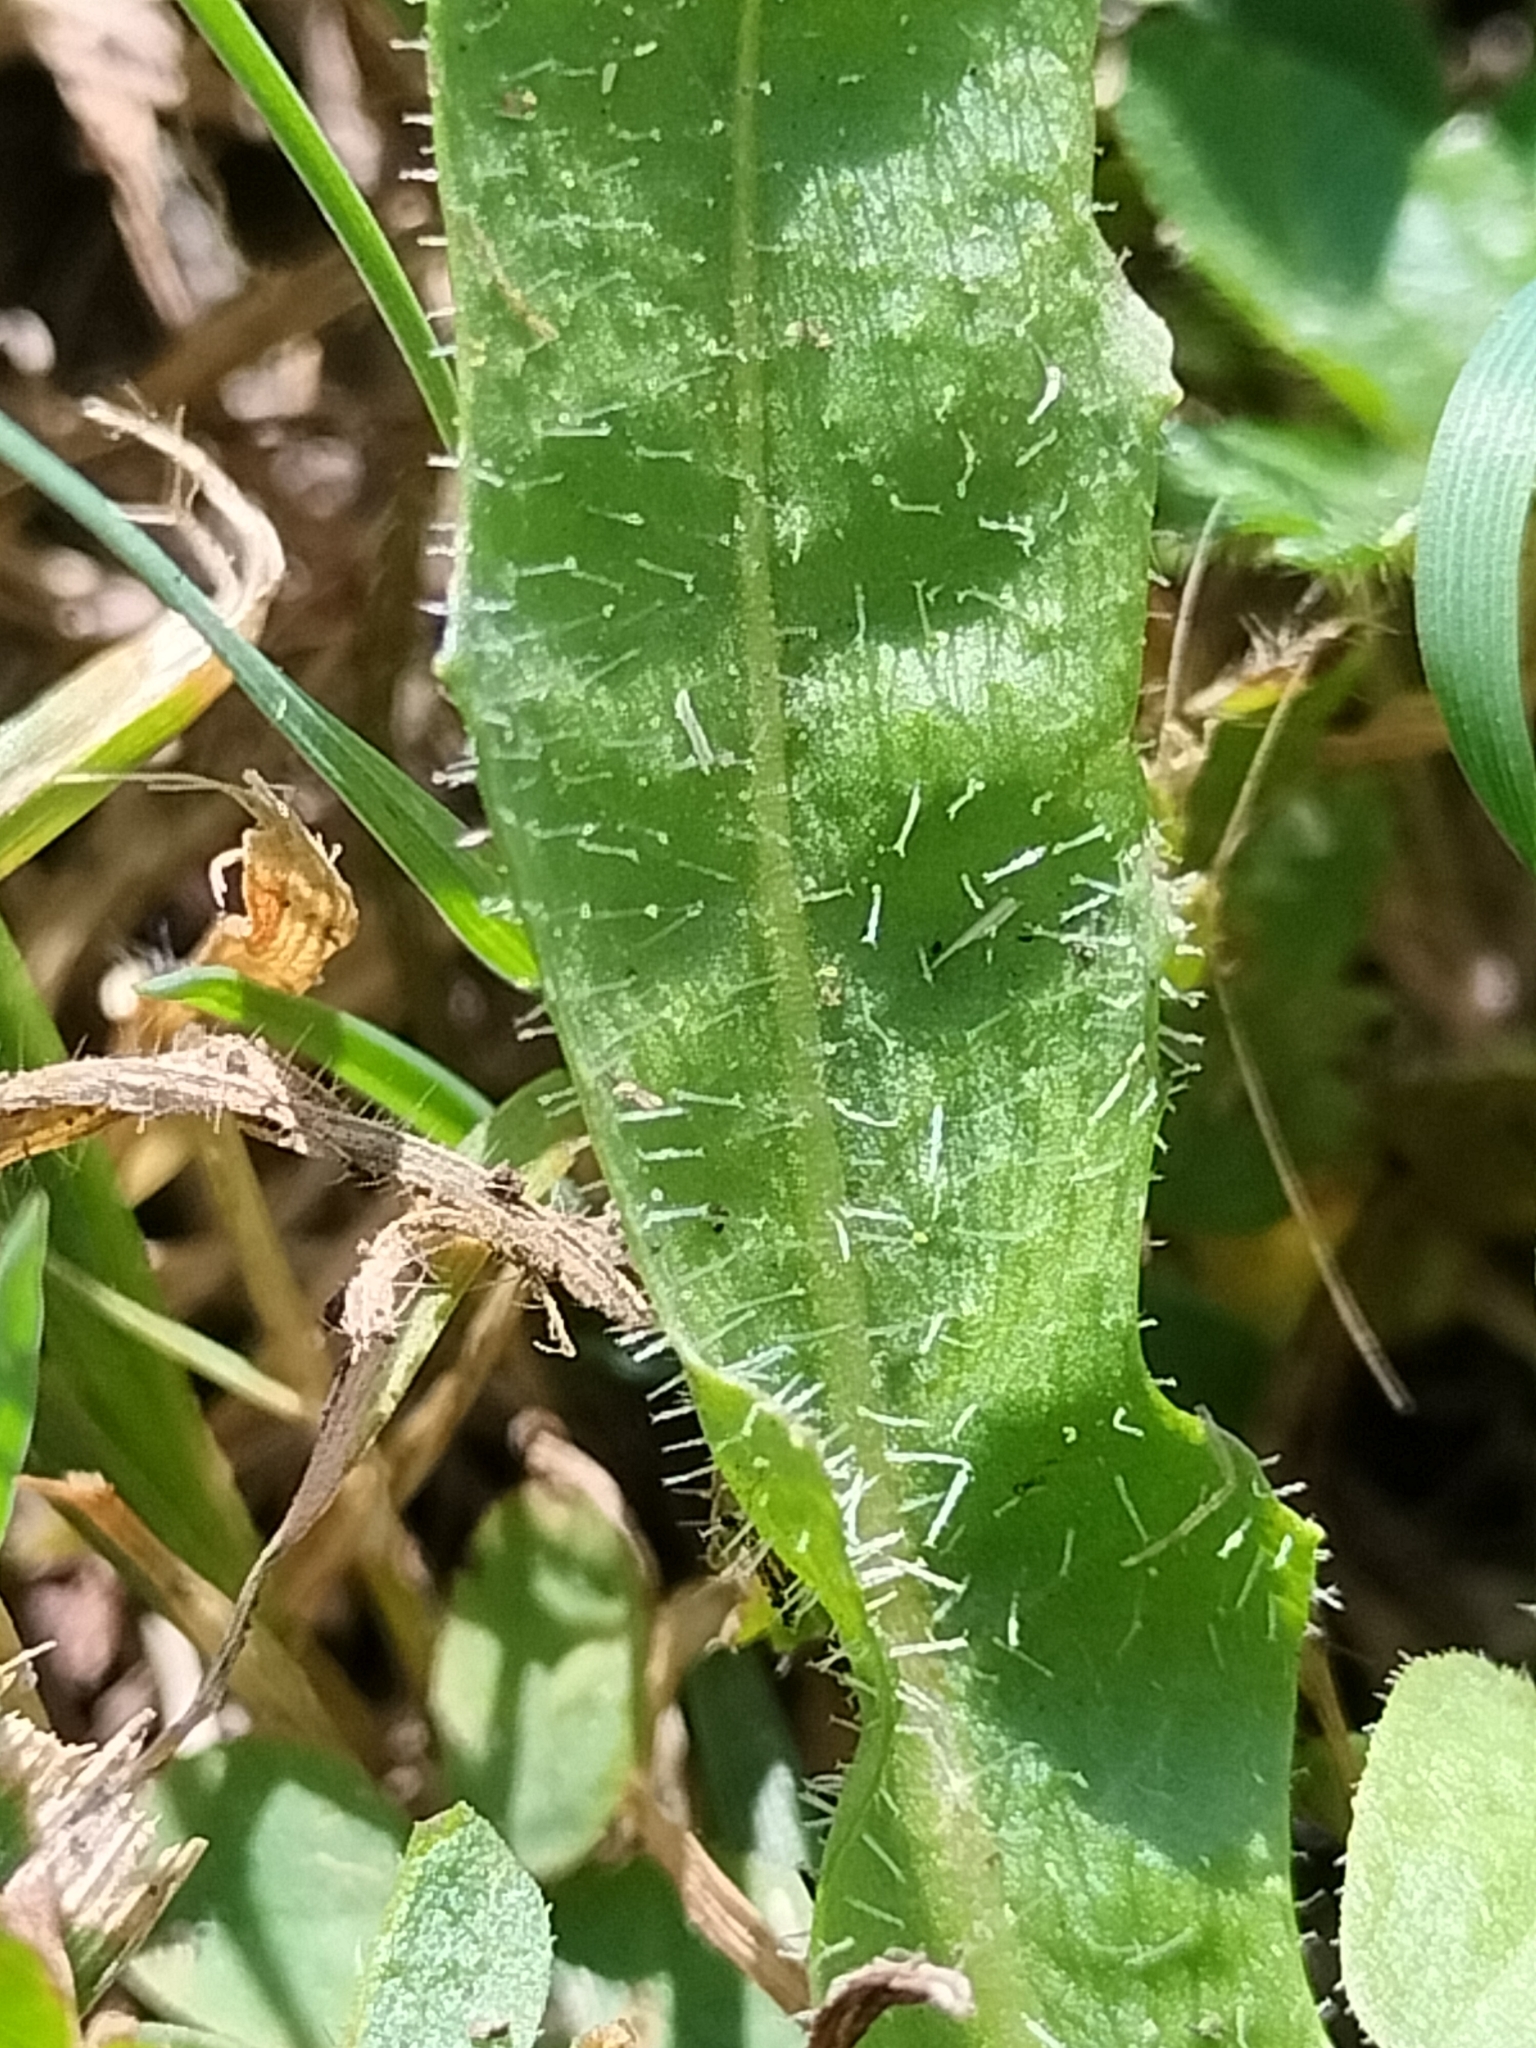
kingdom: Plantae
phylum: Tracheophyta
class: Magnoliopsida
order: Asterales
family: Asteraceae
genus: Scorzoneroides
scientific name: Scorzoneroides autumnalis
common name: Autumn hawkbit
